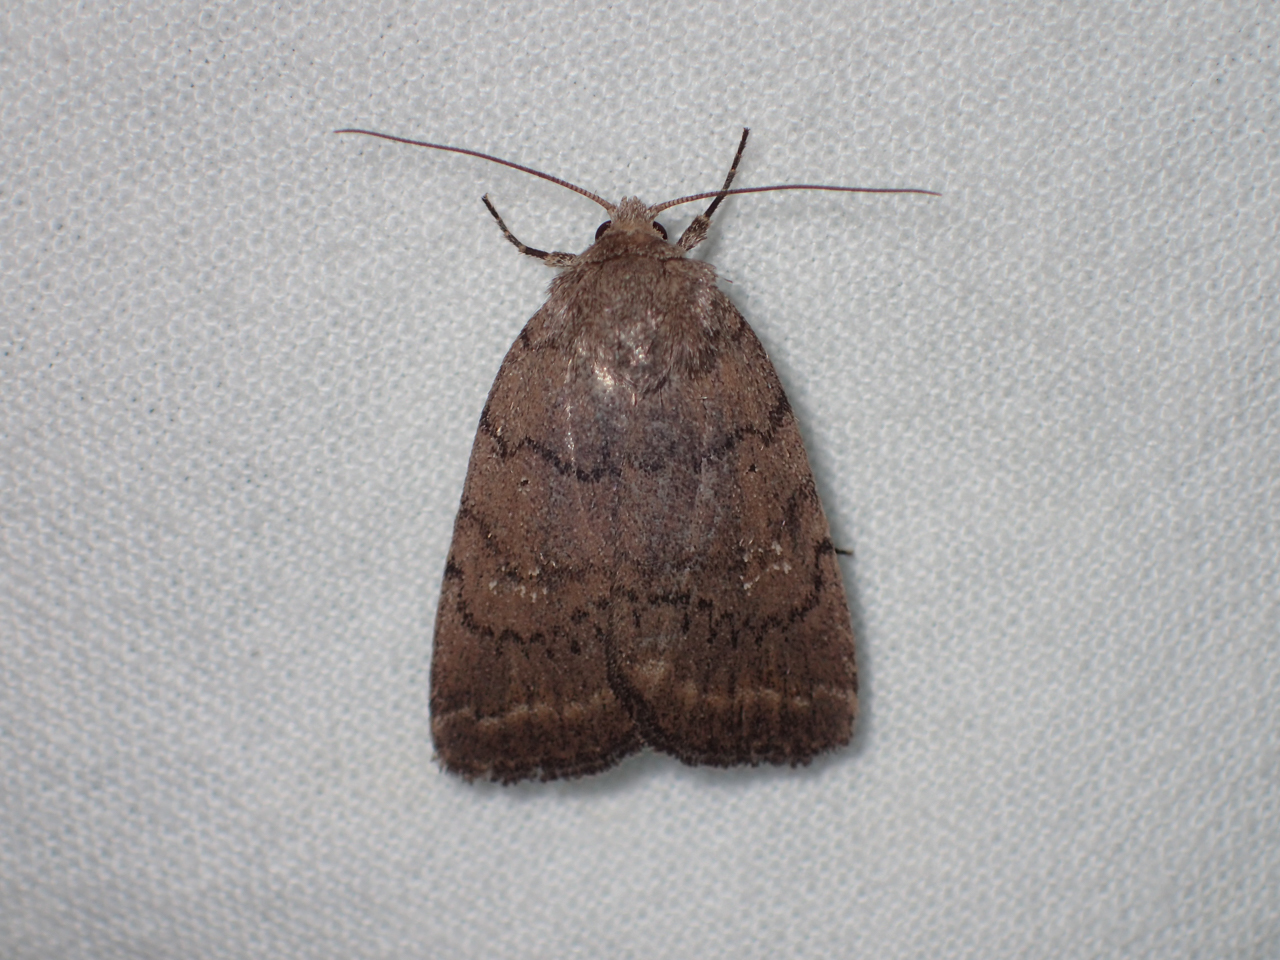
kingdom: Animalia
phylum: Arthropoda
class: Insecta
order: Lepidoptera
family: Noctuidae
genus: Athetis
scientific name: Athetis tarda
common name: Slowpoke moth
